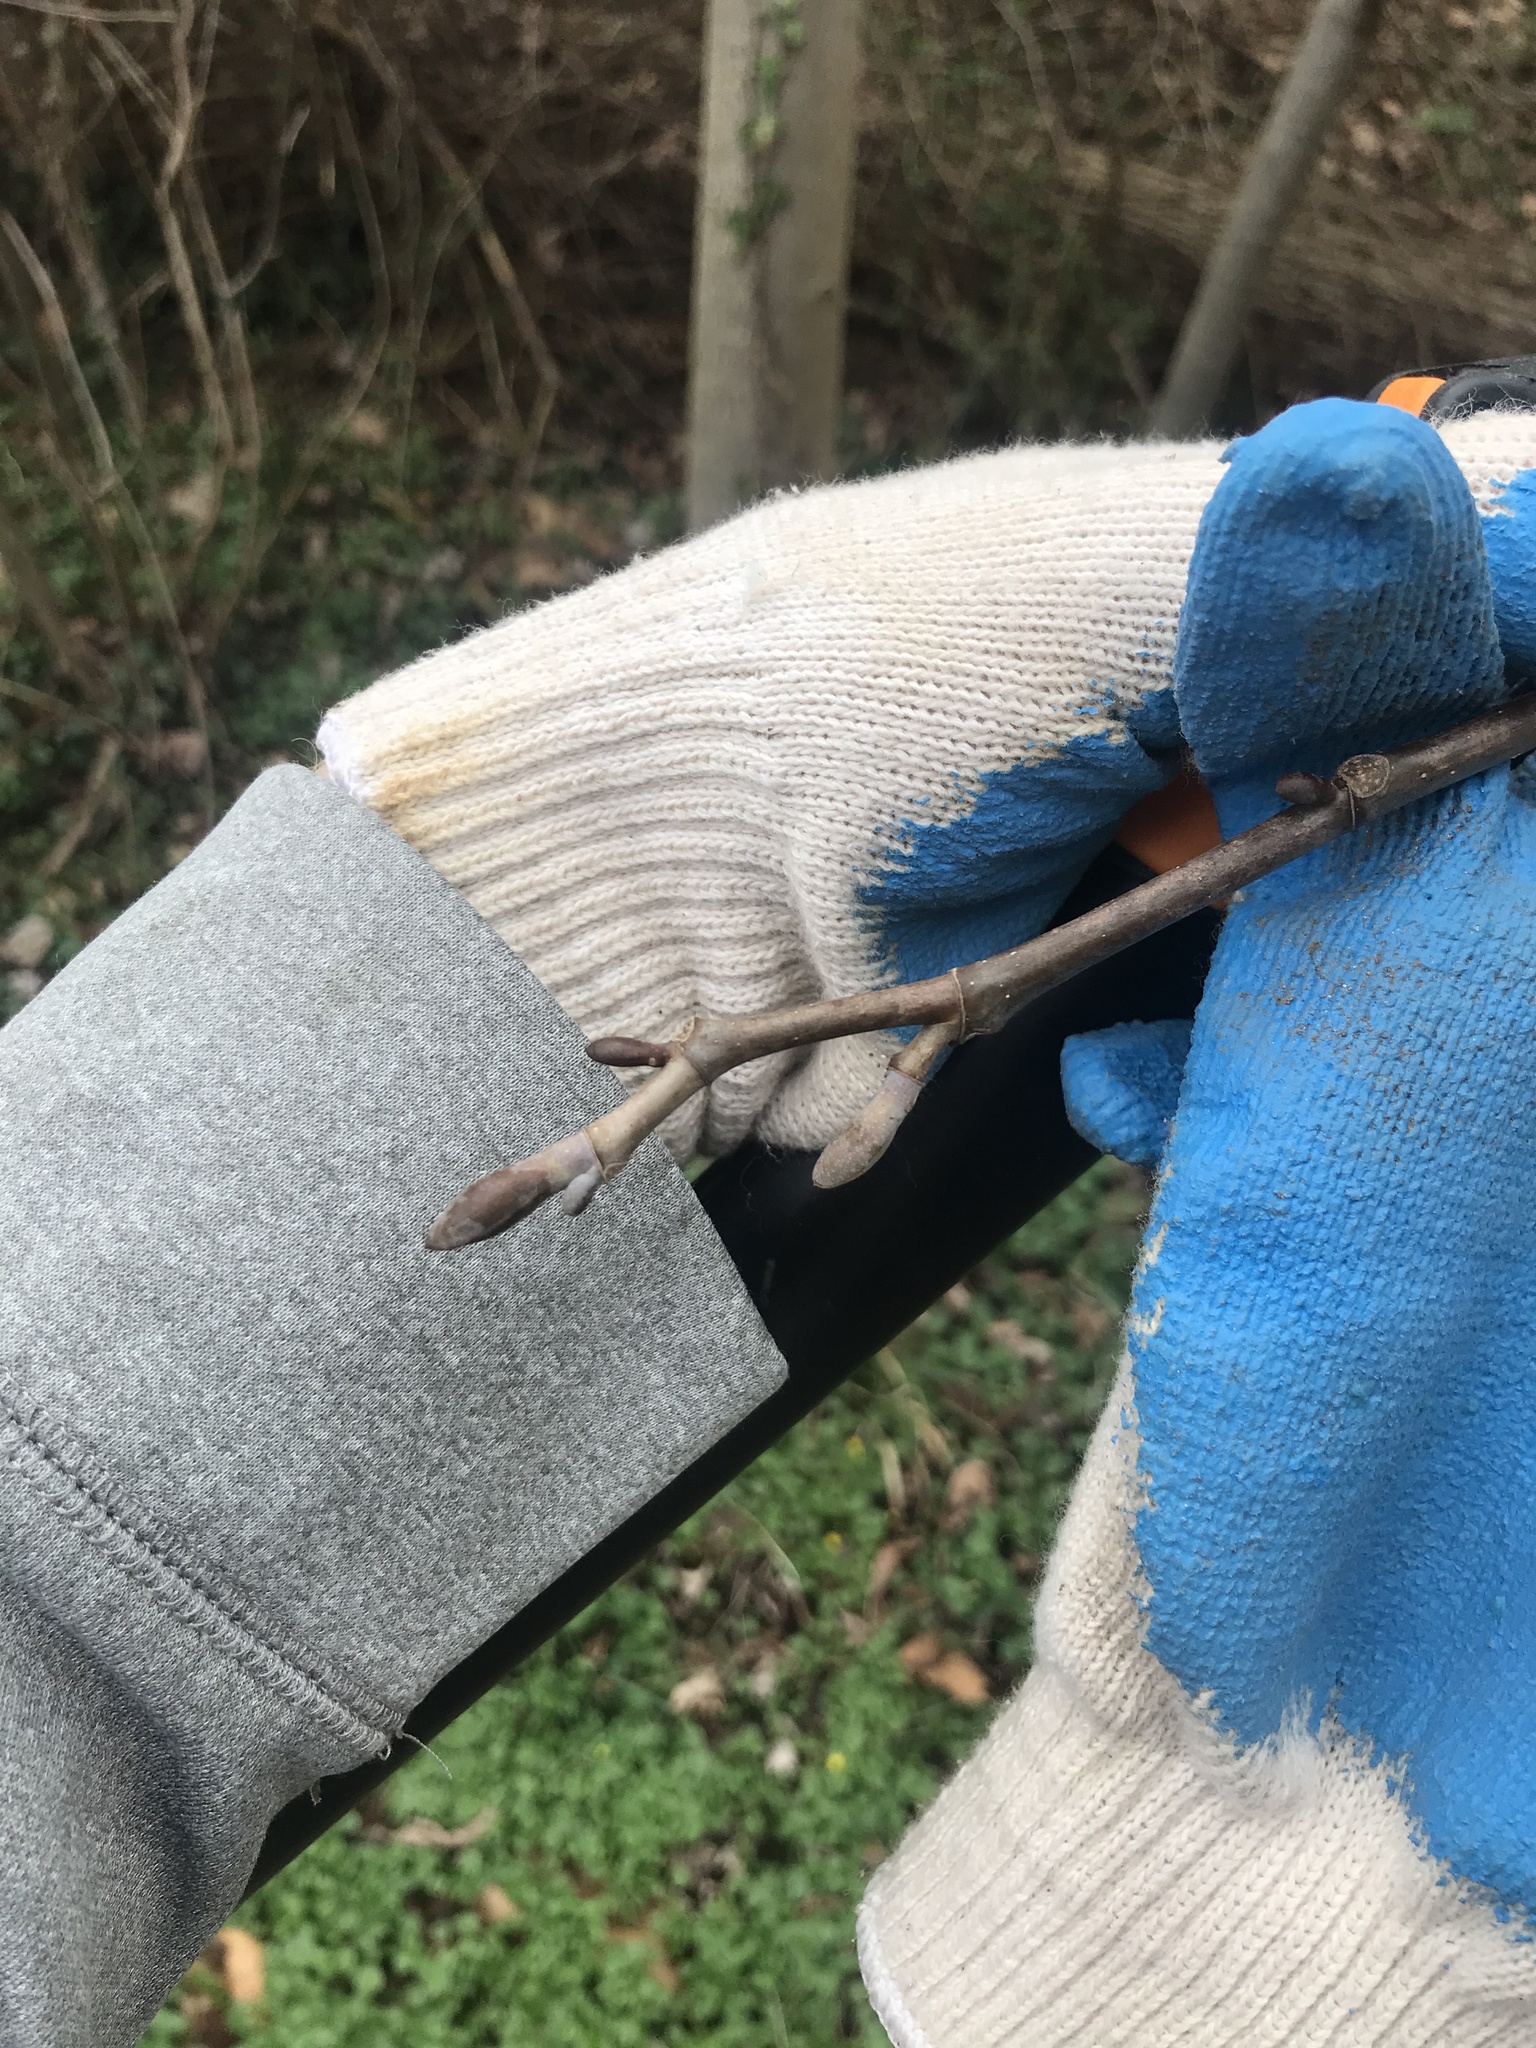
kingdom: Plantae
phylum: Tracheophyta
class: Magnoliopsida
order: Magnoliales
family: Magnoliaceae
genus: Liriodendron
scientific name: Liriodendron tulipifera
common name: Tulip tree
